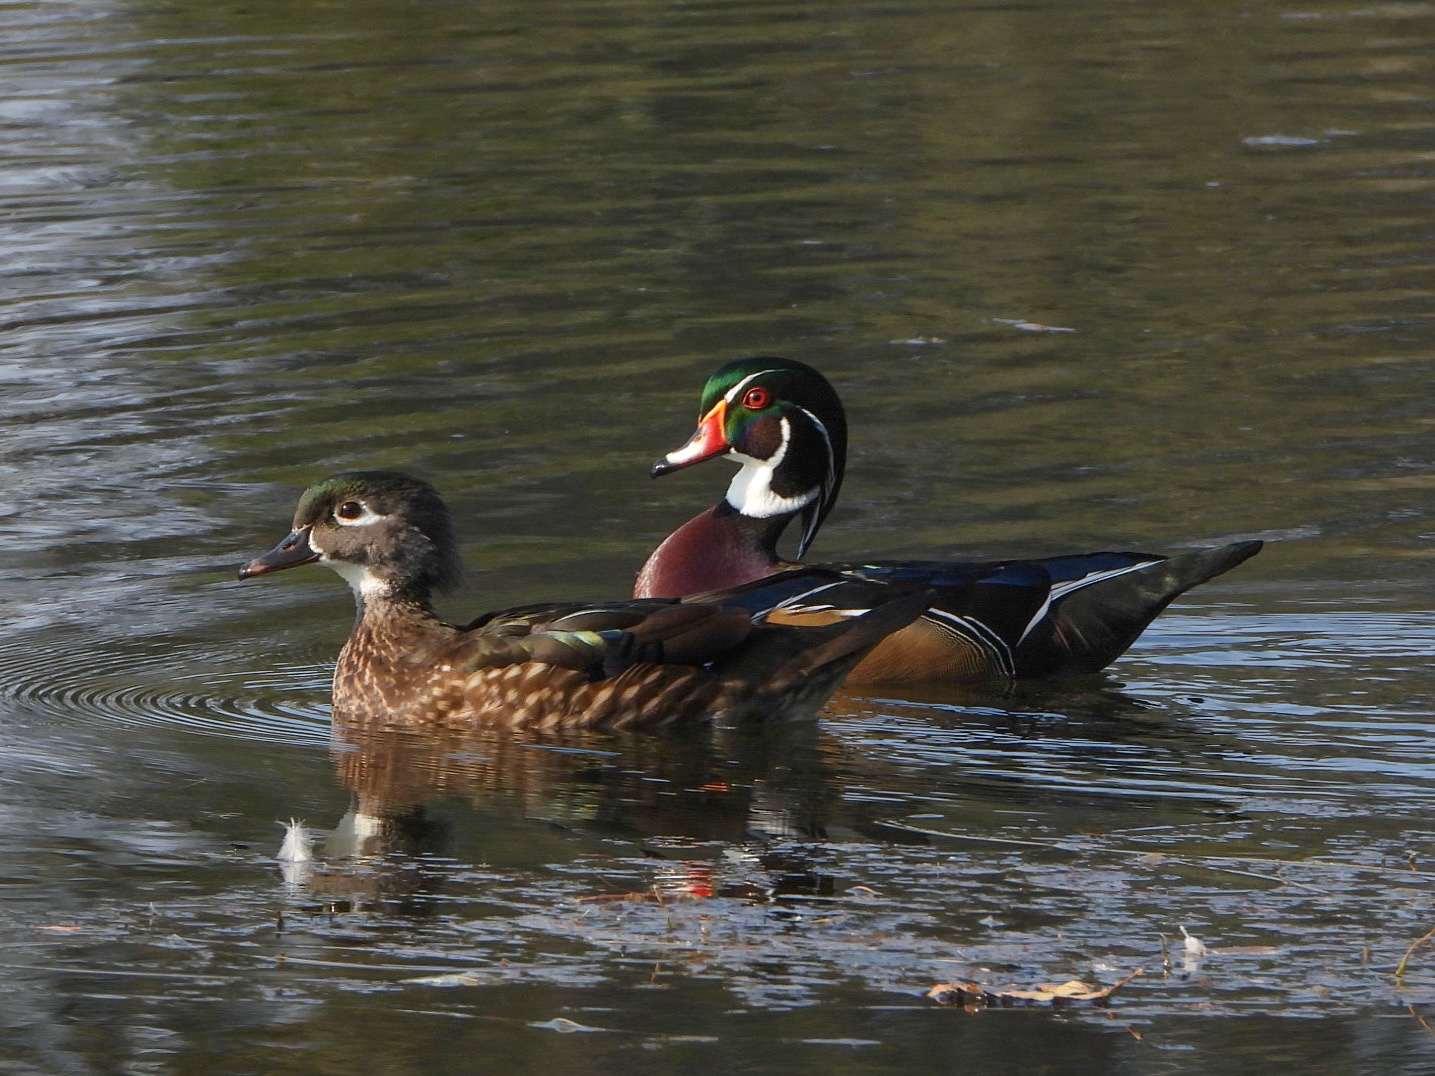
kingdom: Animalia
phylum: Chordata
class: Aves
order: Anseriformes
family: Anatidae
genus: Aix
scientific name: Aix sponsa
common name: Wood duck
